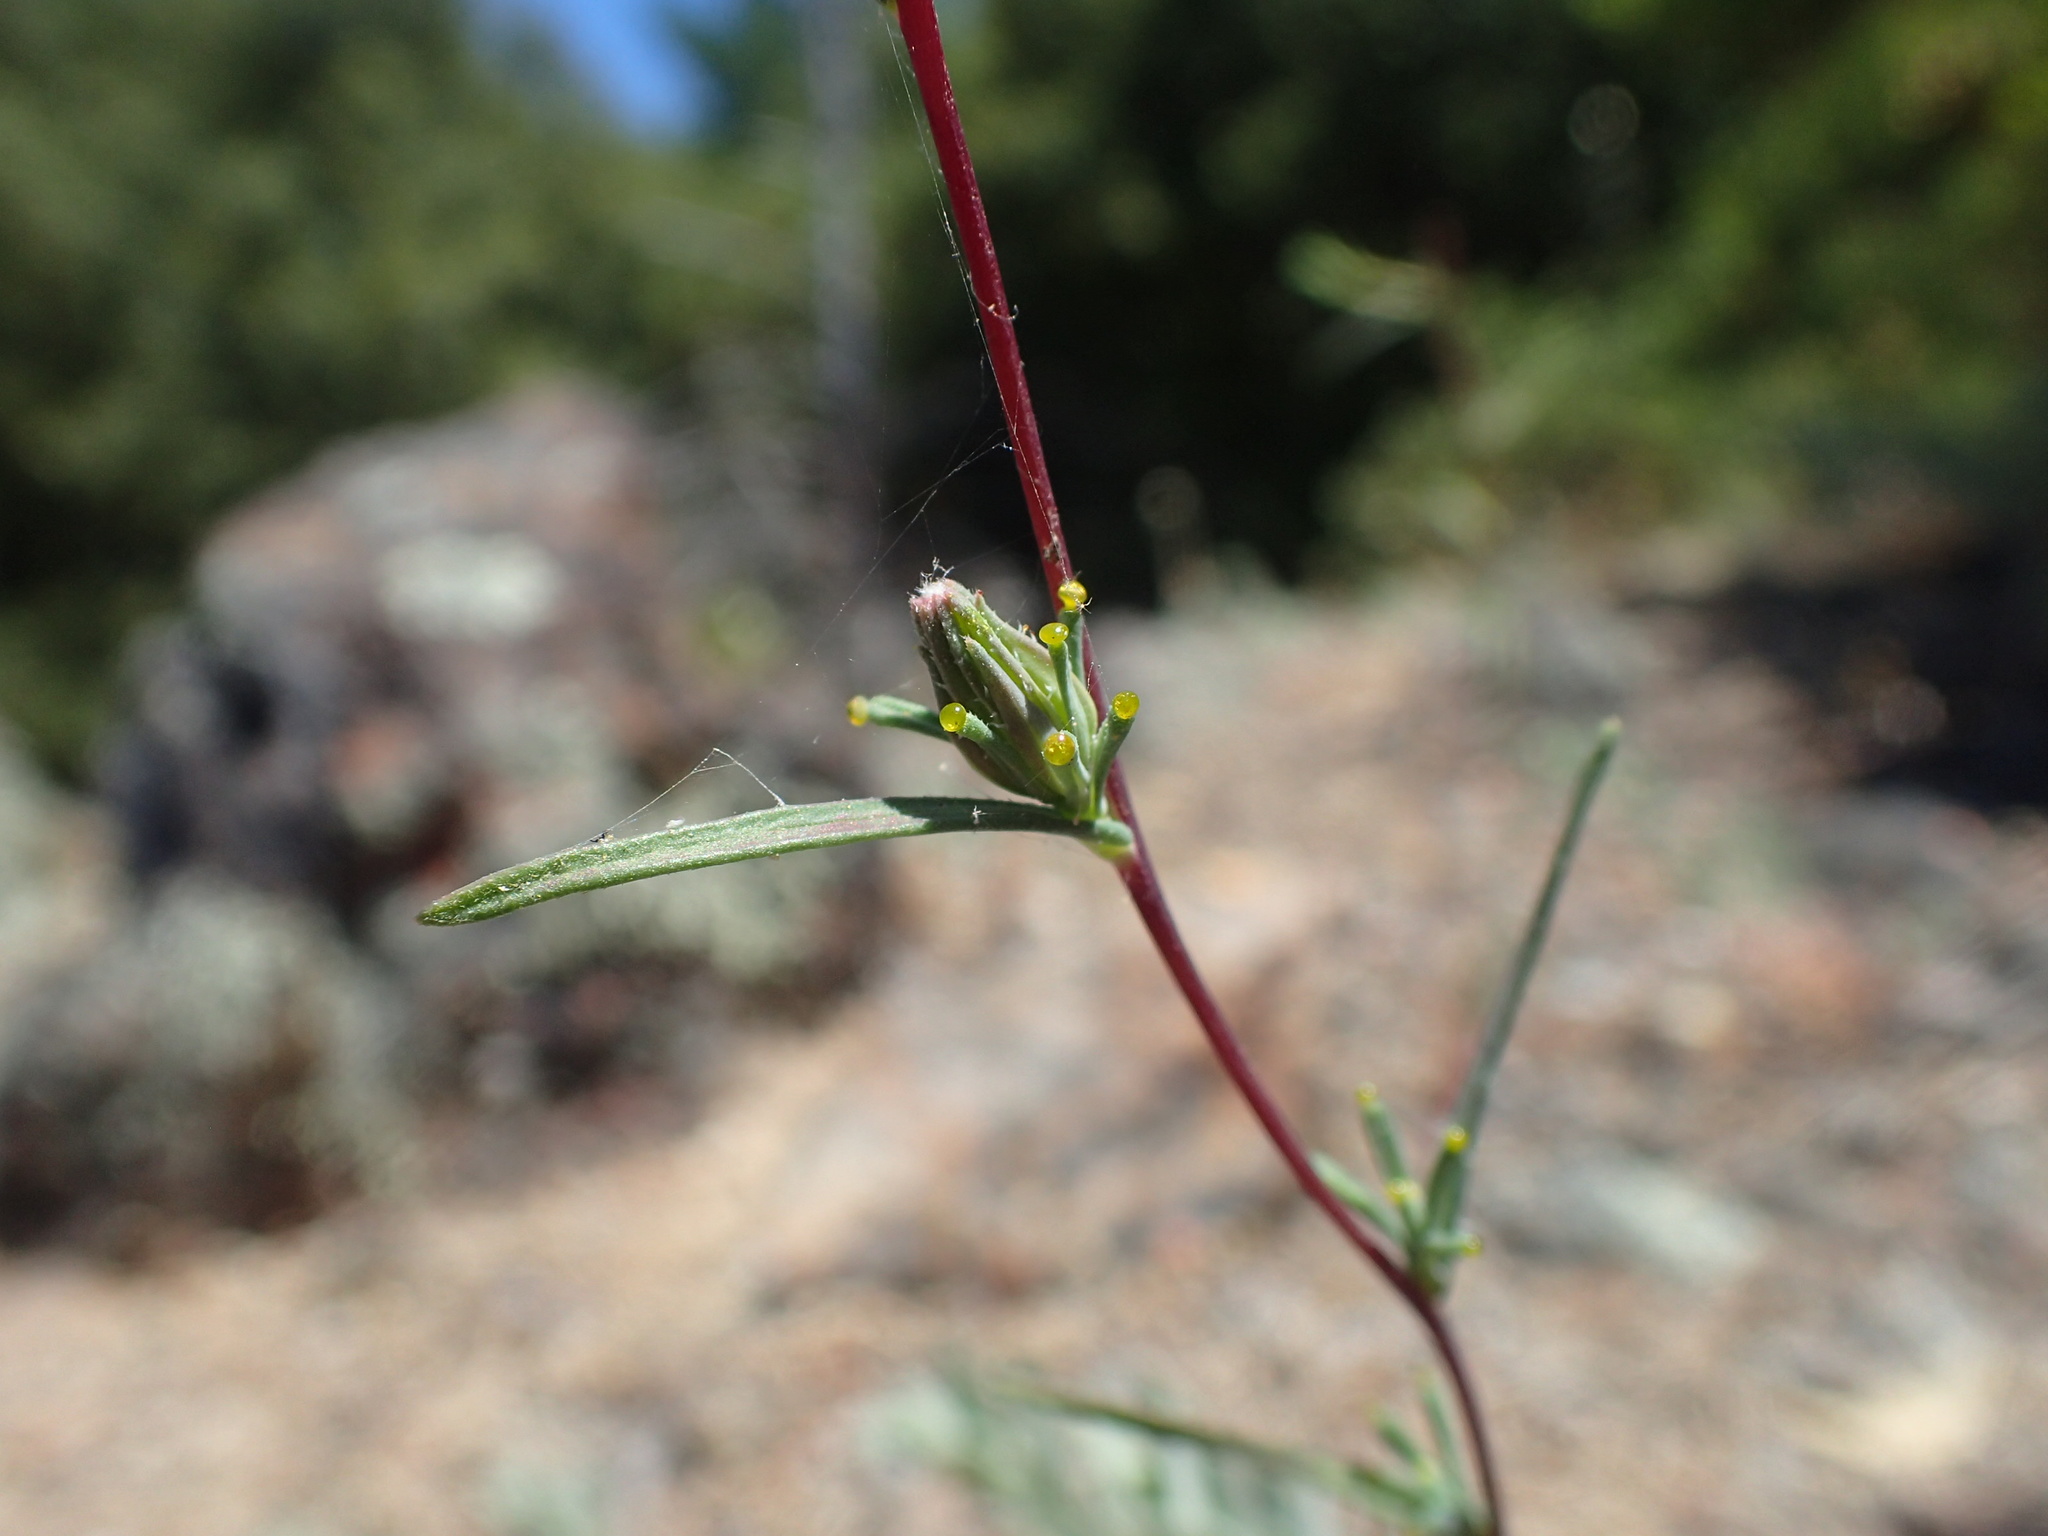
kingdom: Plantae
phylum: Tracheophyta
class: Magnoliopsida
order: Asterales
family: Asteraceae
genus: Calycadenia
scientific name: Calycadenia truncata
